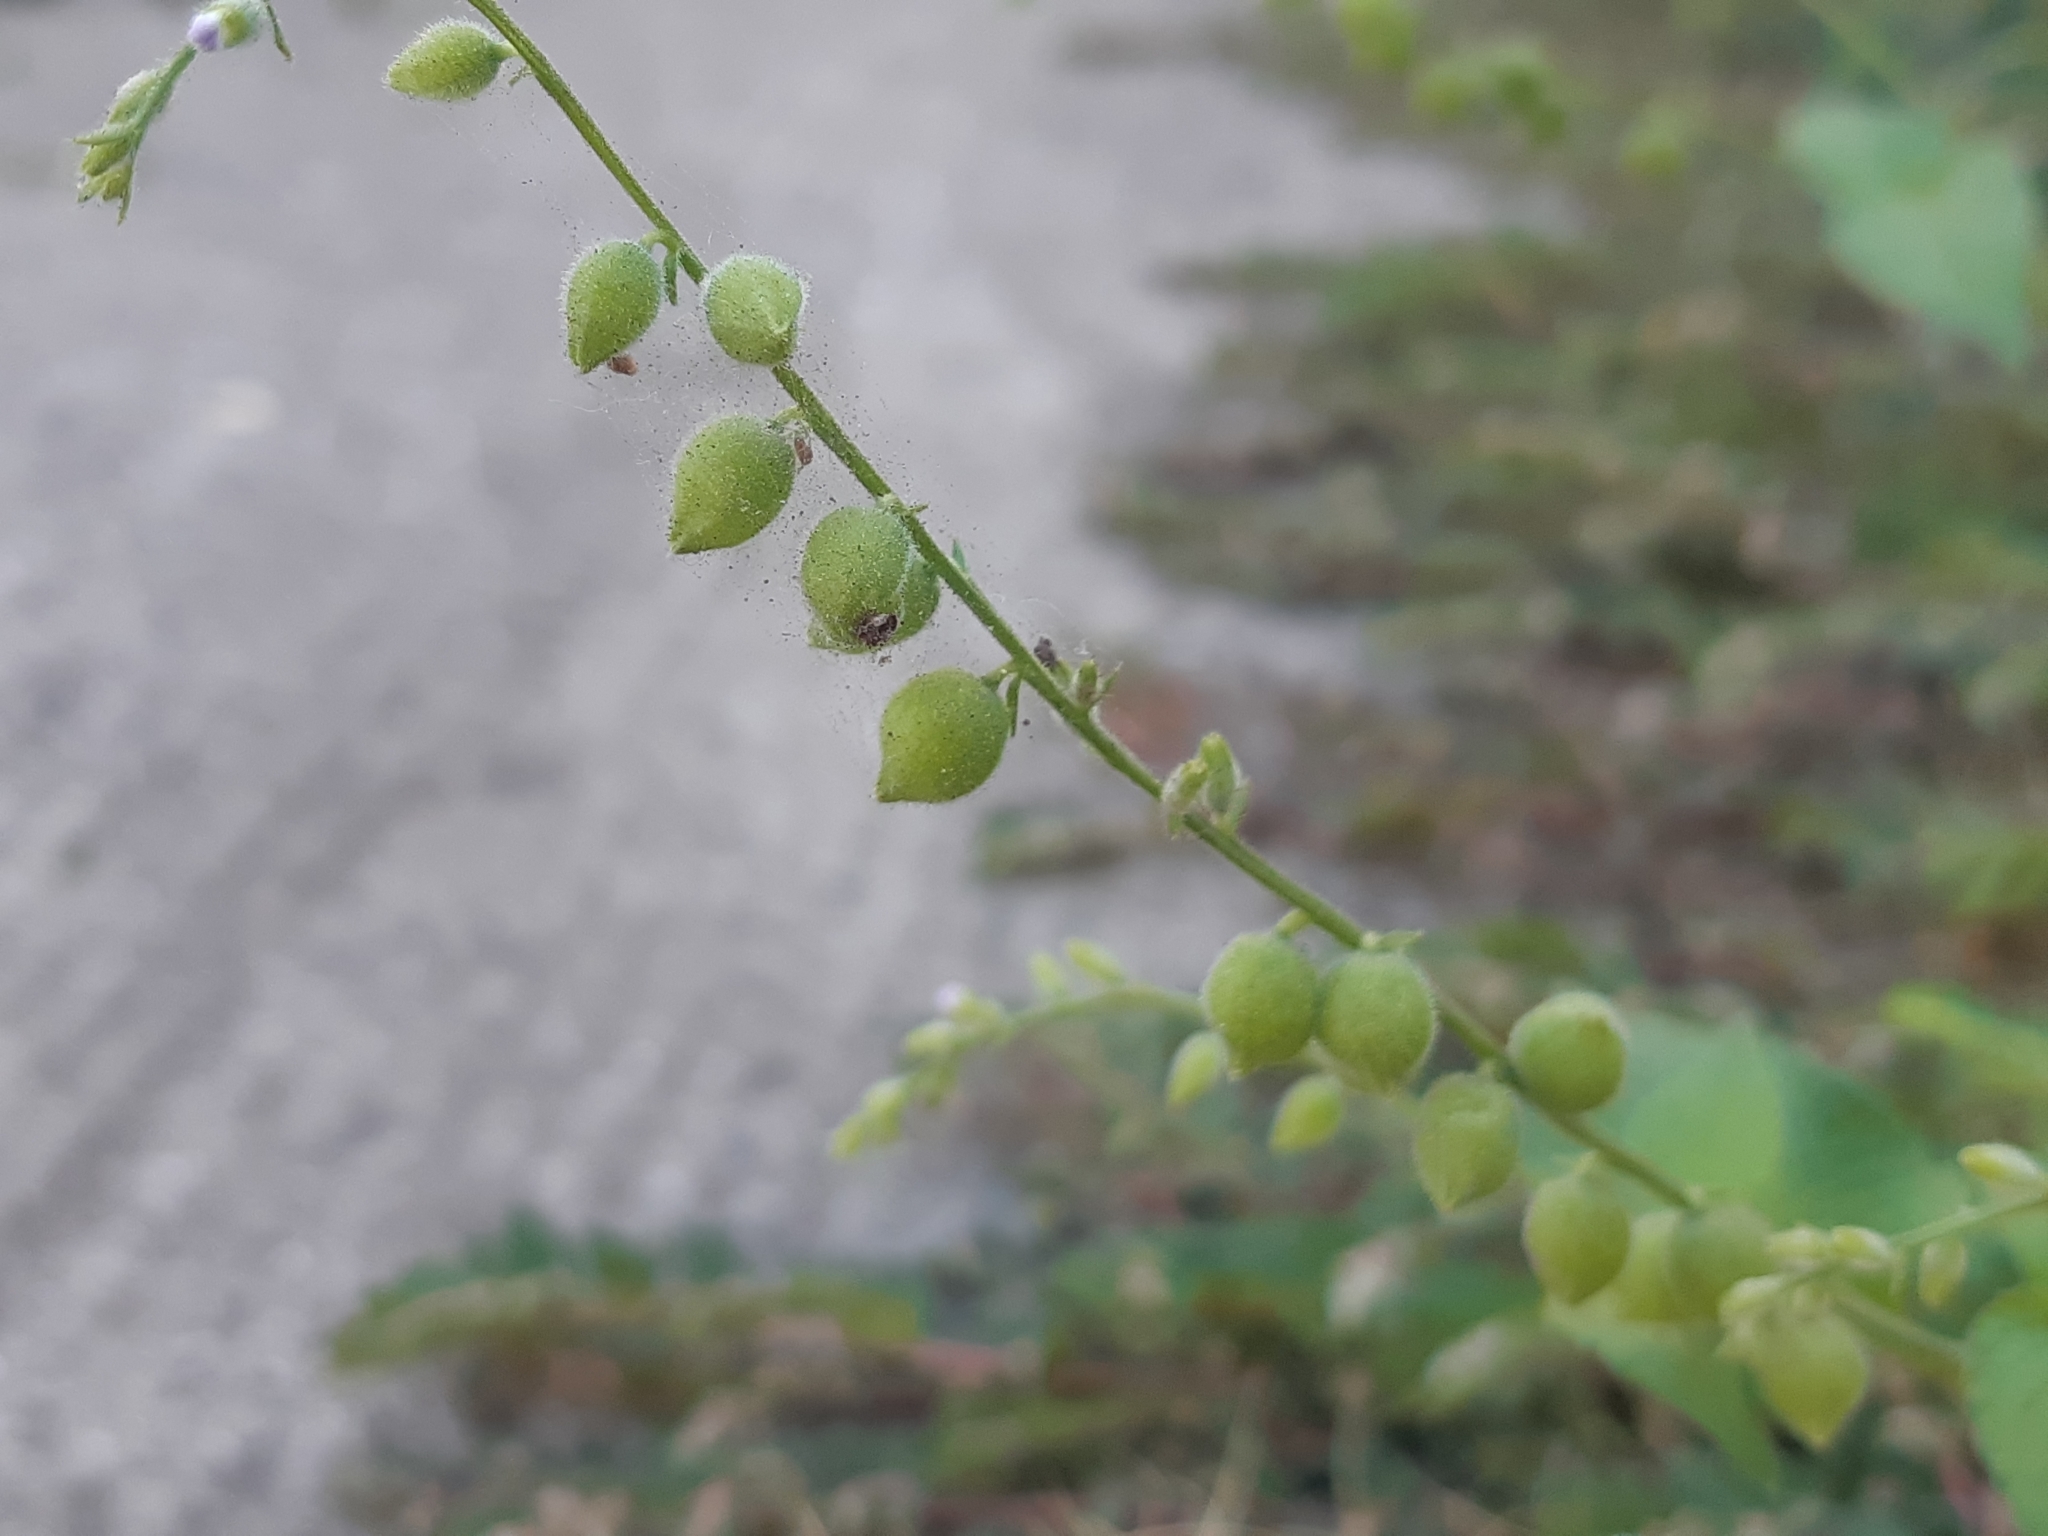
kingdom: Plantae
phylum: Tracheophyta
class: Magnoliopsida
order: Lamiales
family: Verbenaceae
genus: Priva
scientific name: Priva lappulacea
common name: Fasten-'pon-coat
